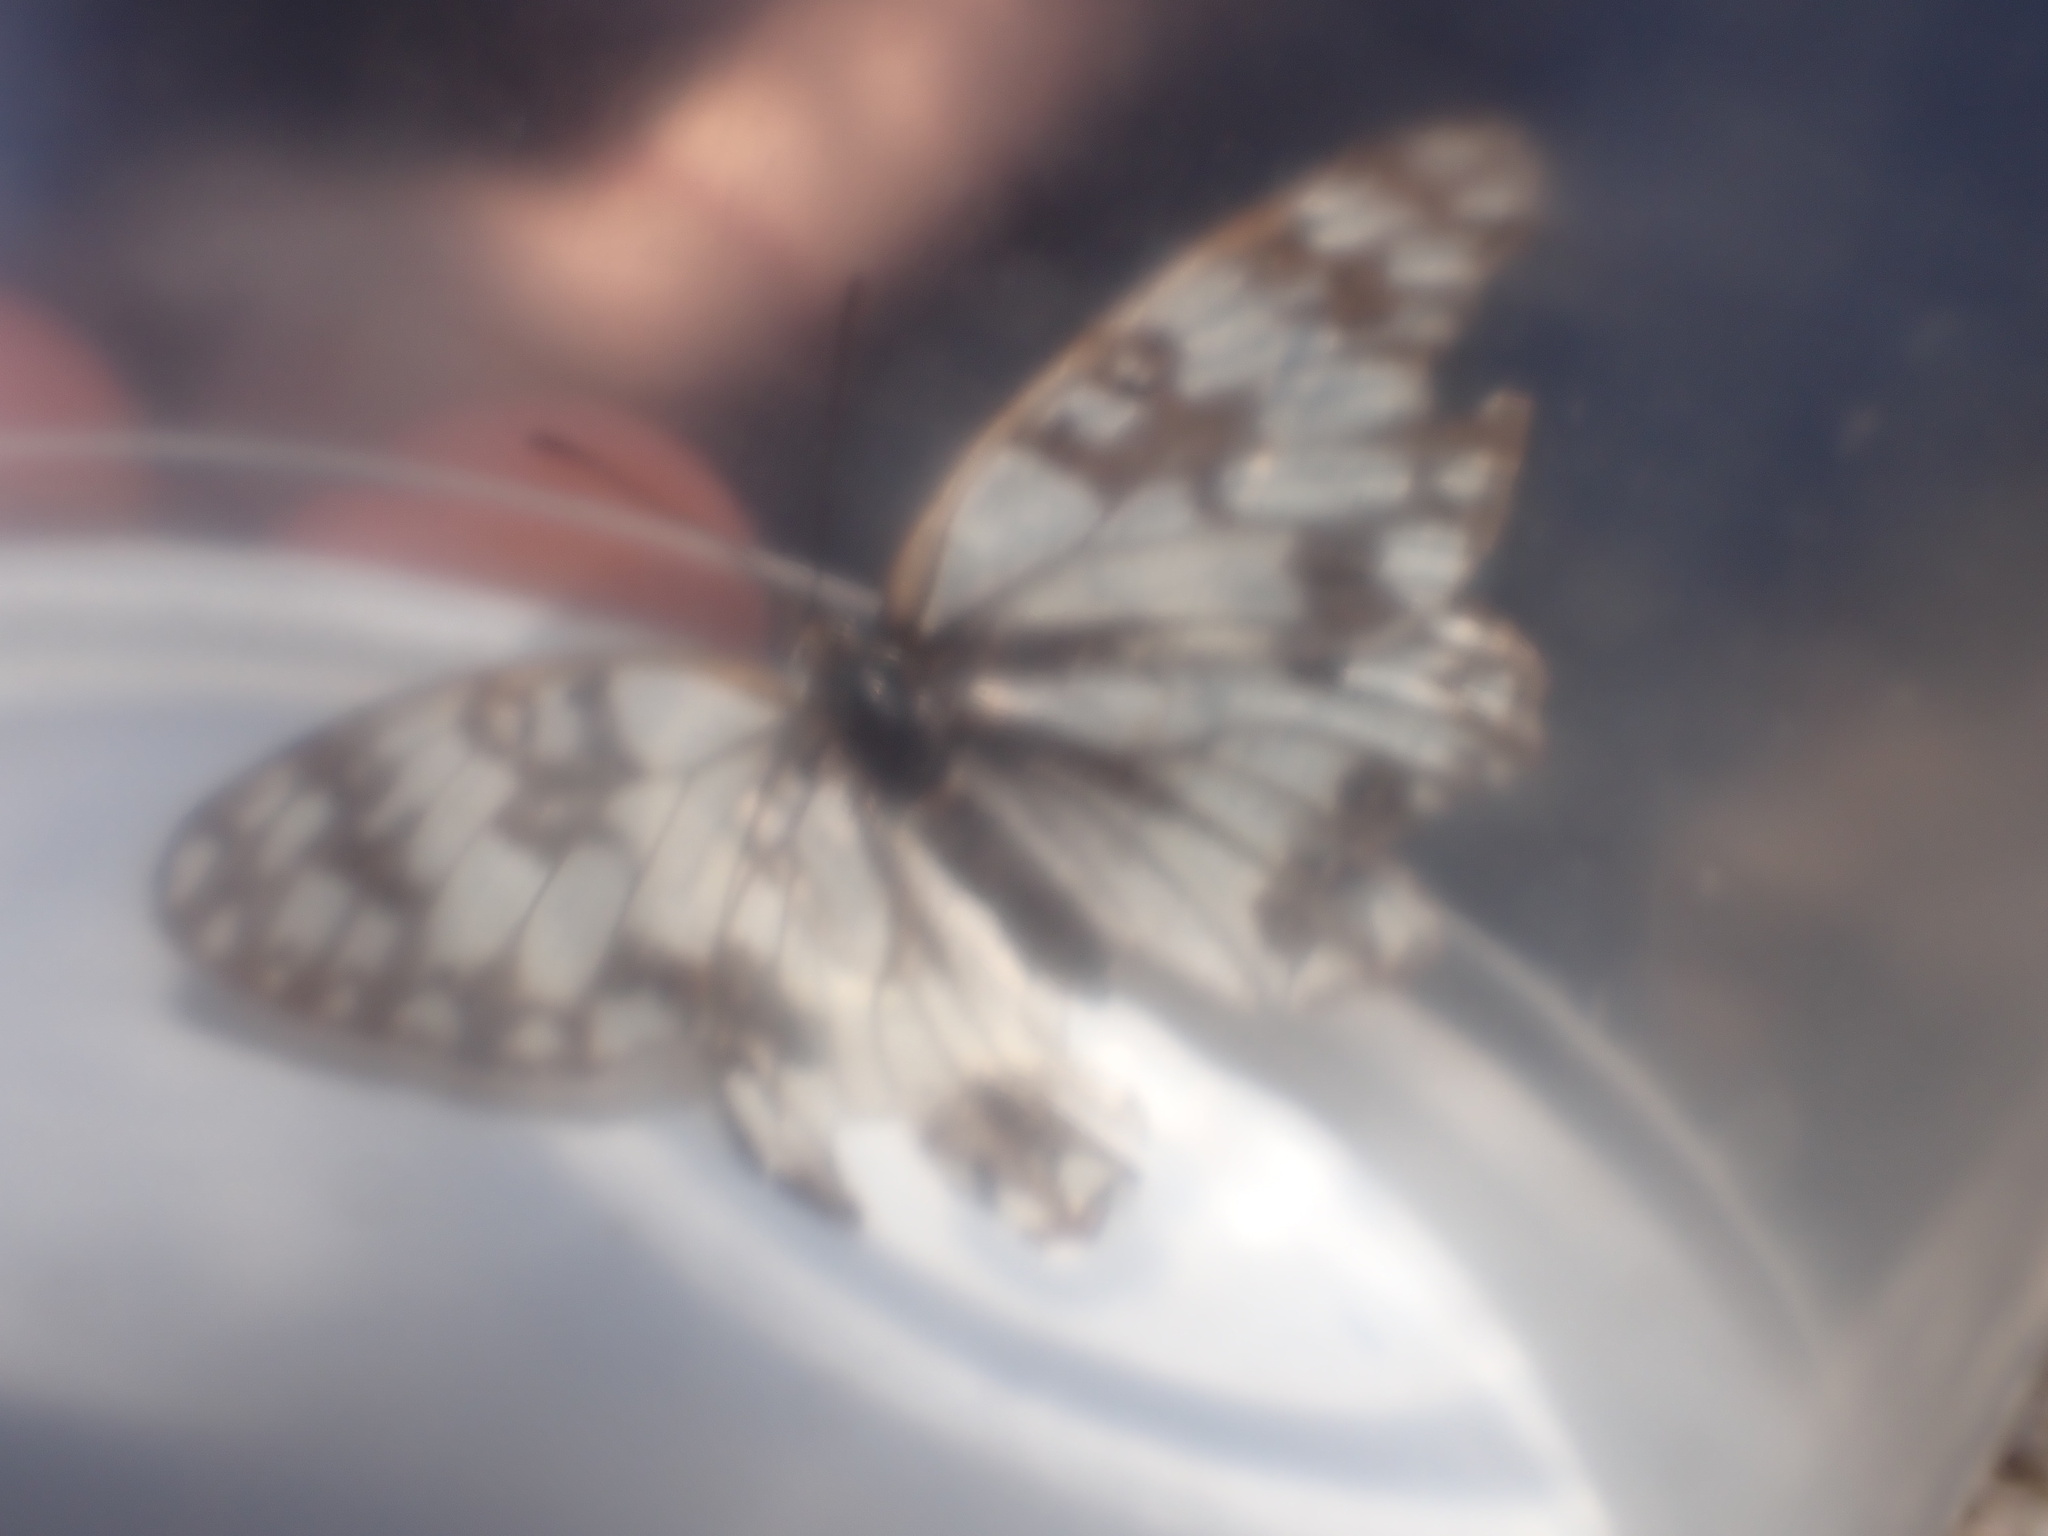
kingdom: Animalia
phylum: Arthropoda
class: Insecta
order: Lepidoptera
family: Nymphalidae
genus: Melanargia
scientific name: Melanargia occitanica
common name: Western marbled white
